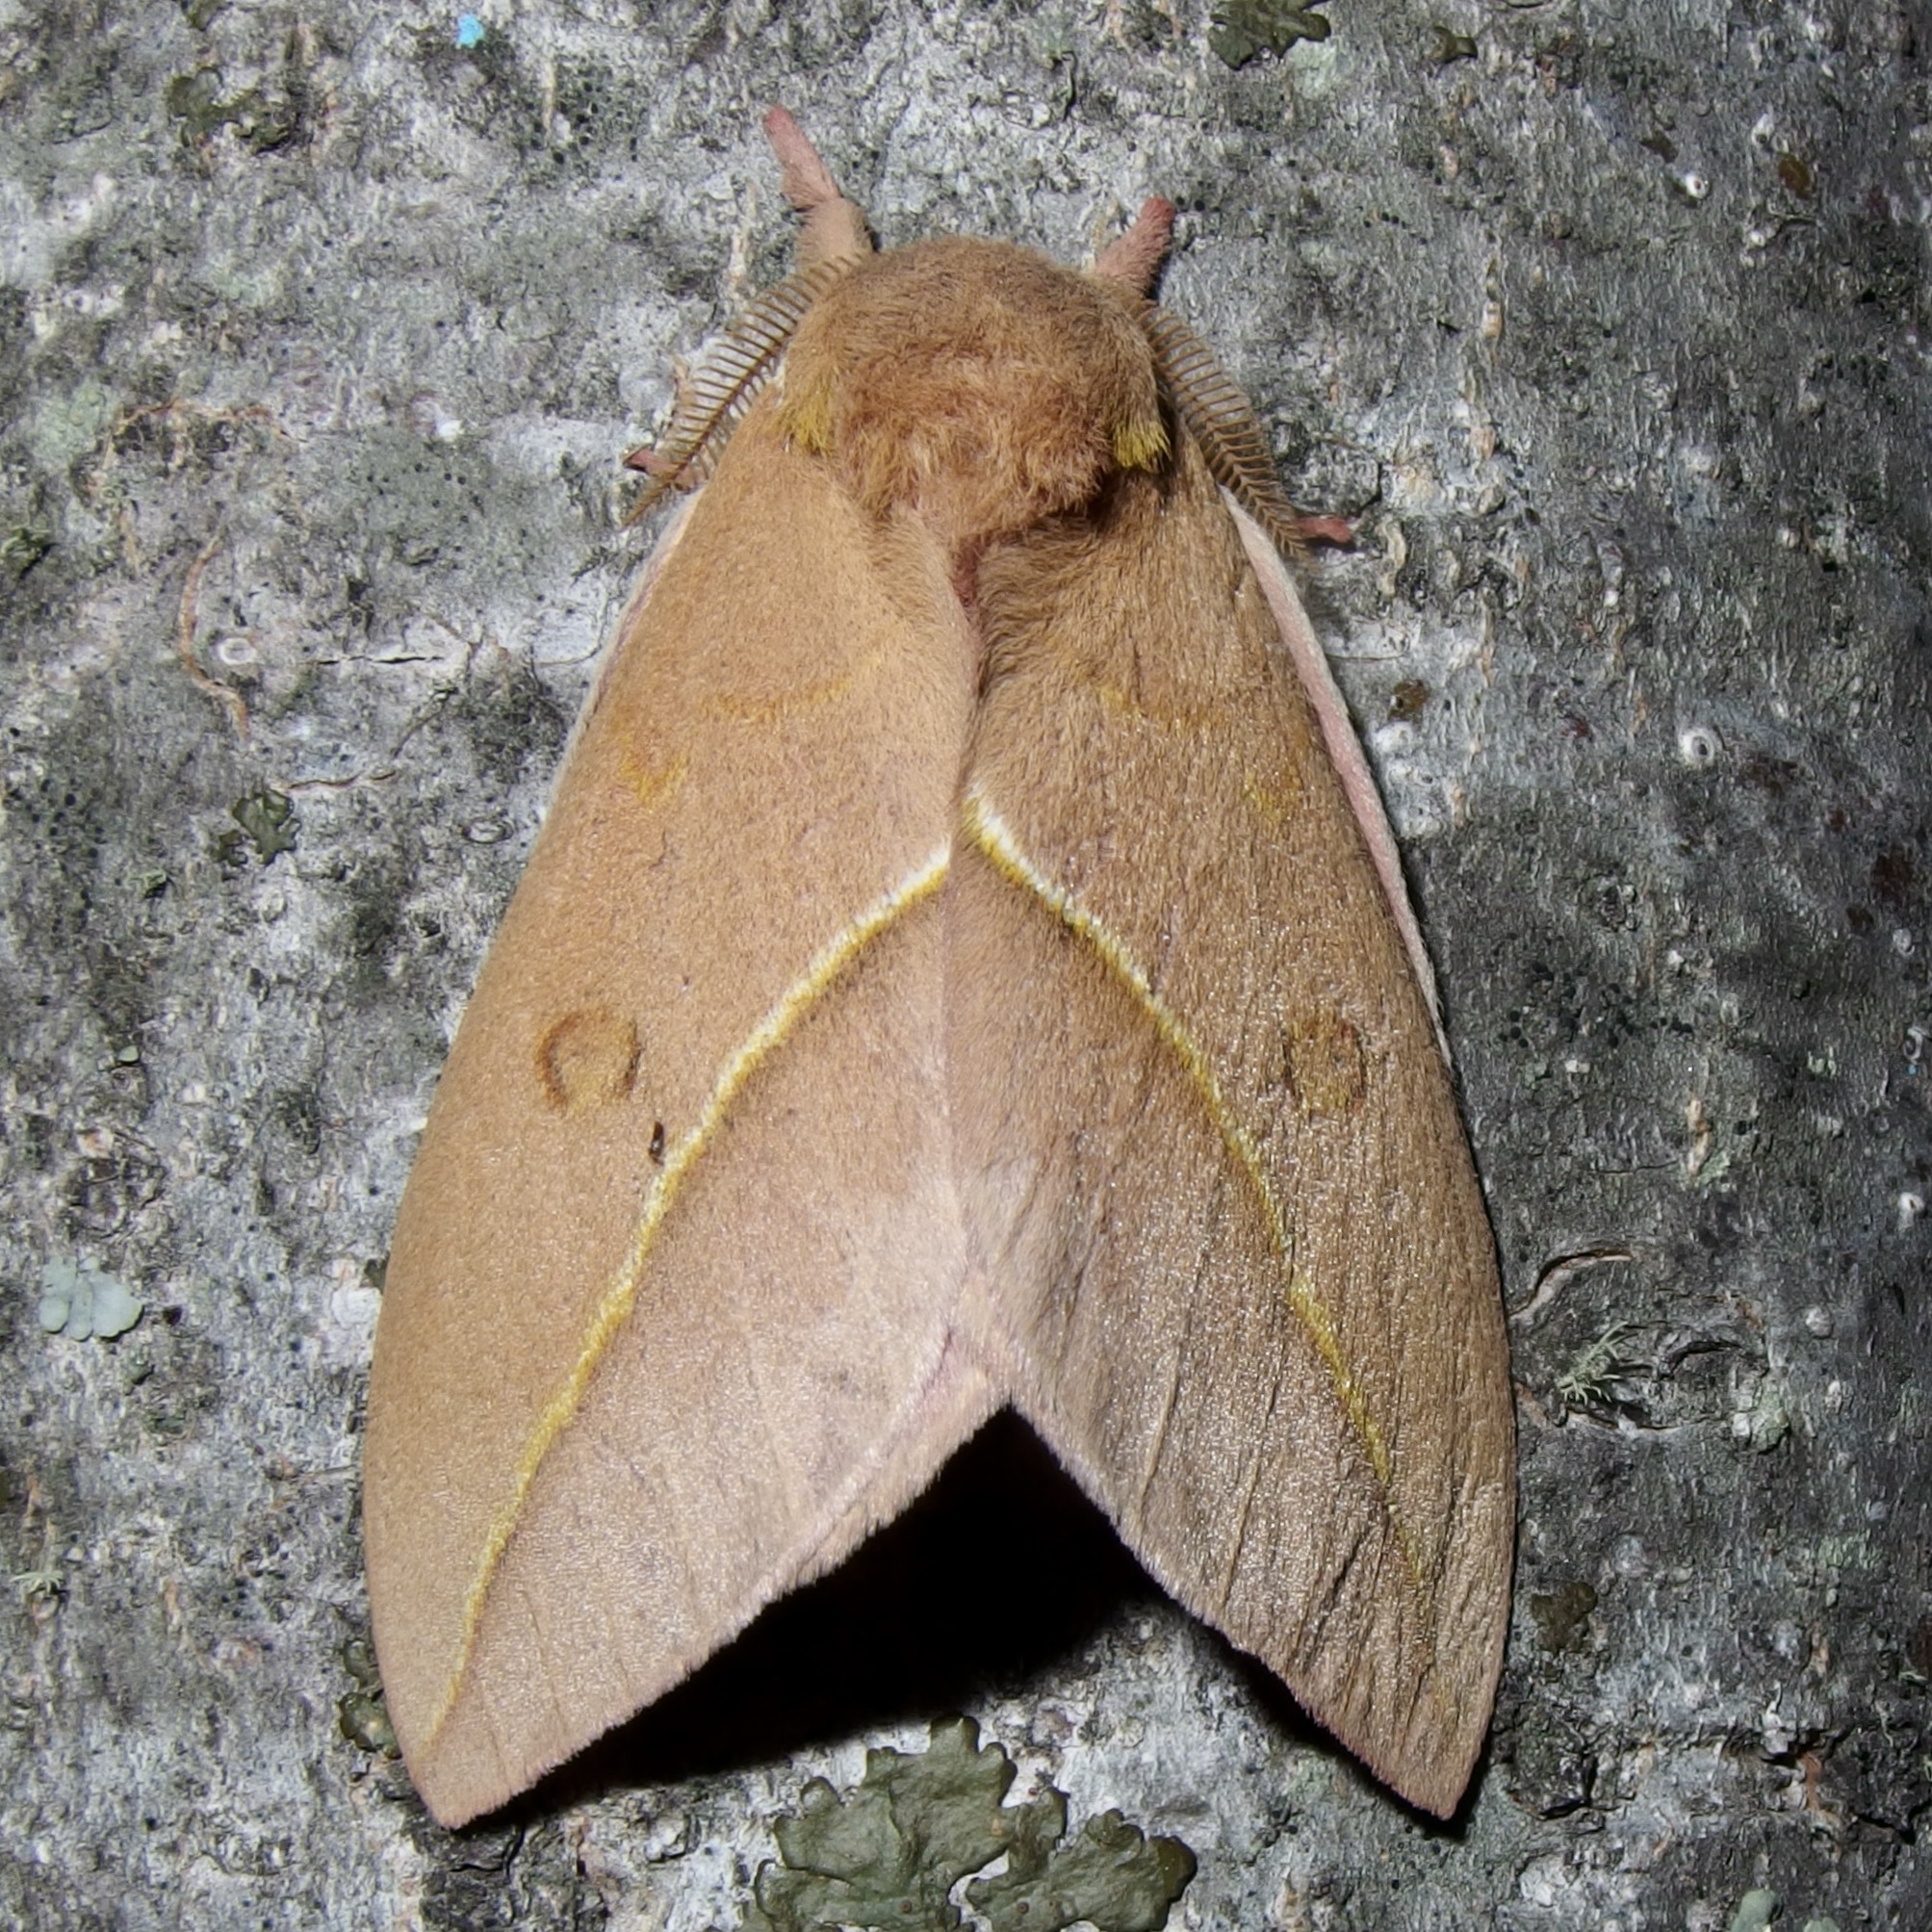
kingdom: Animalia
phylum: Arthropoda
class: Insecta
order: Lepidoptera
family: Saturniidae
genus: Automeris
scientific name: Automeris cecrops
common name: Cecrops eyed silkmoth
